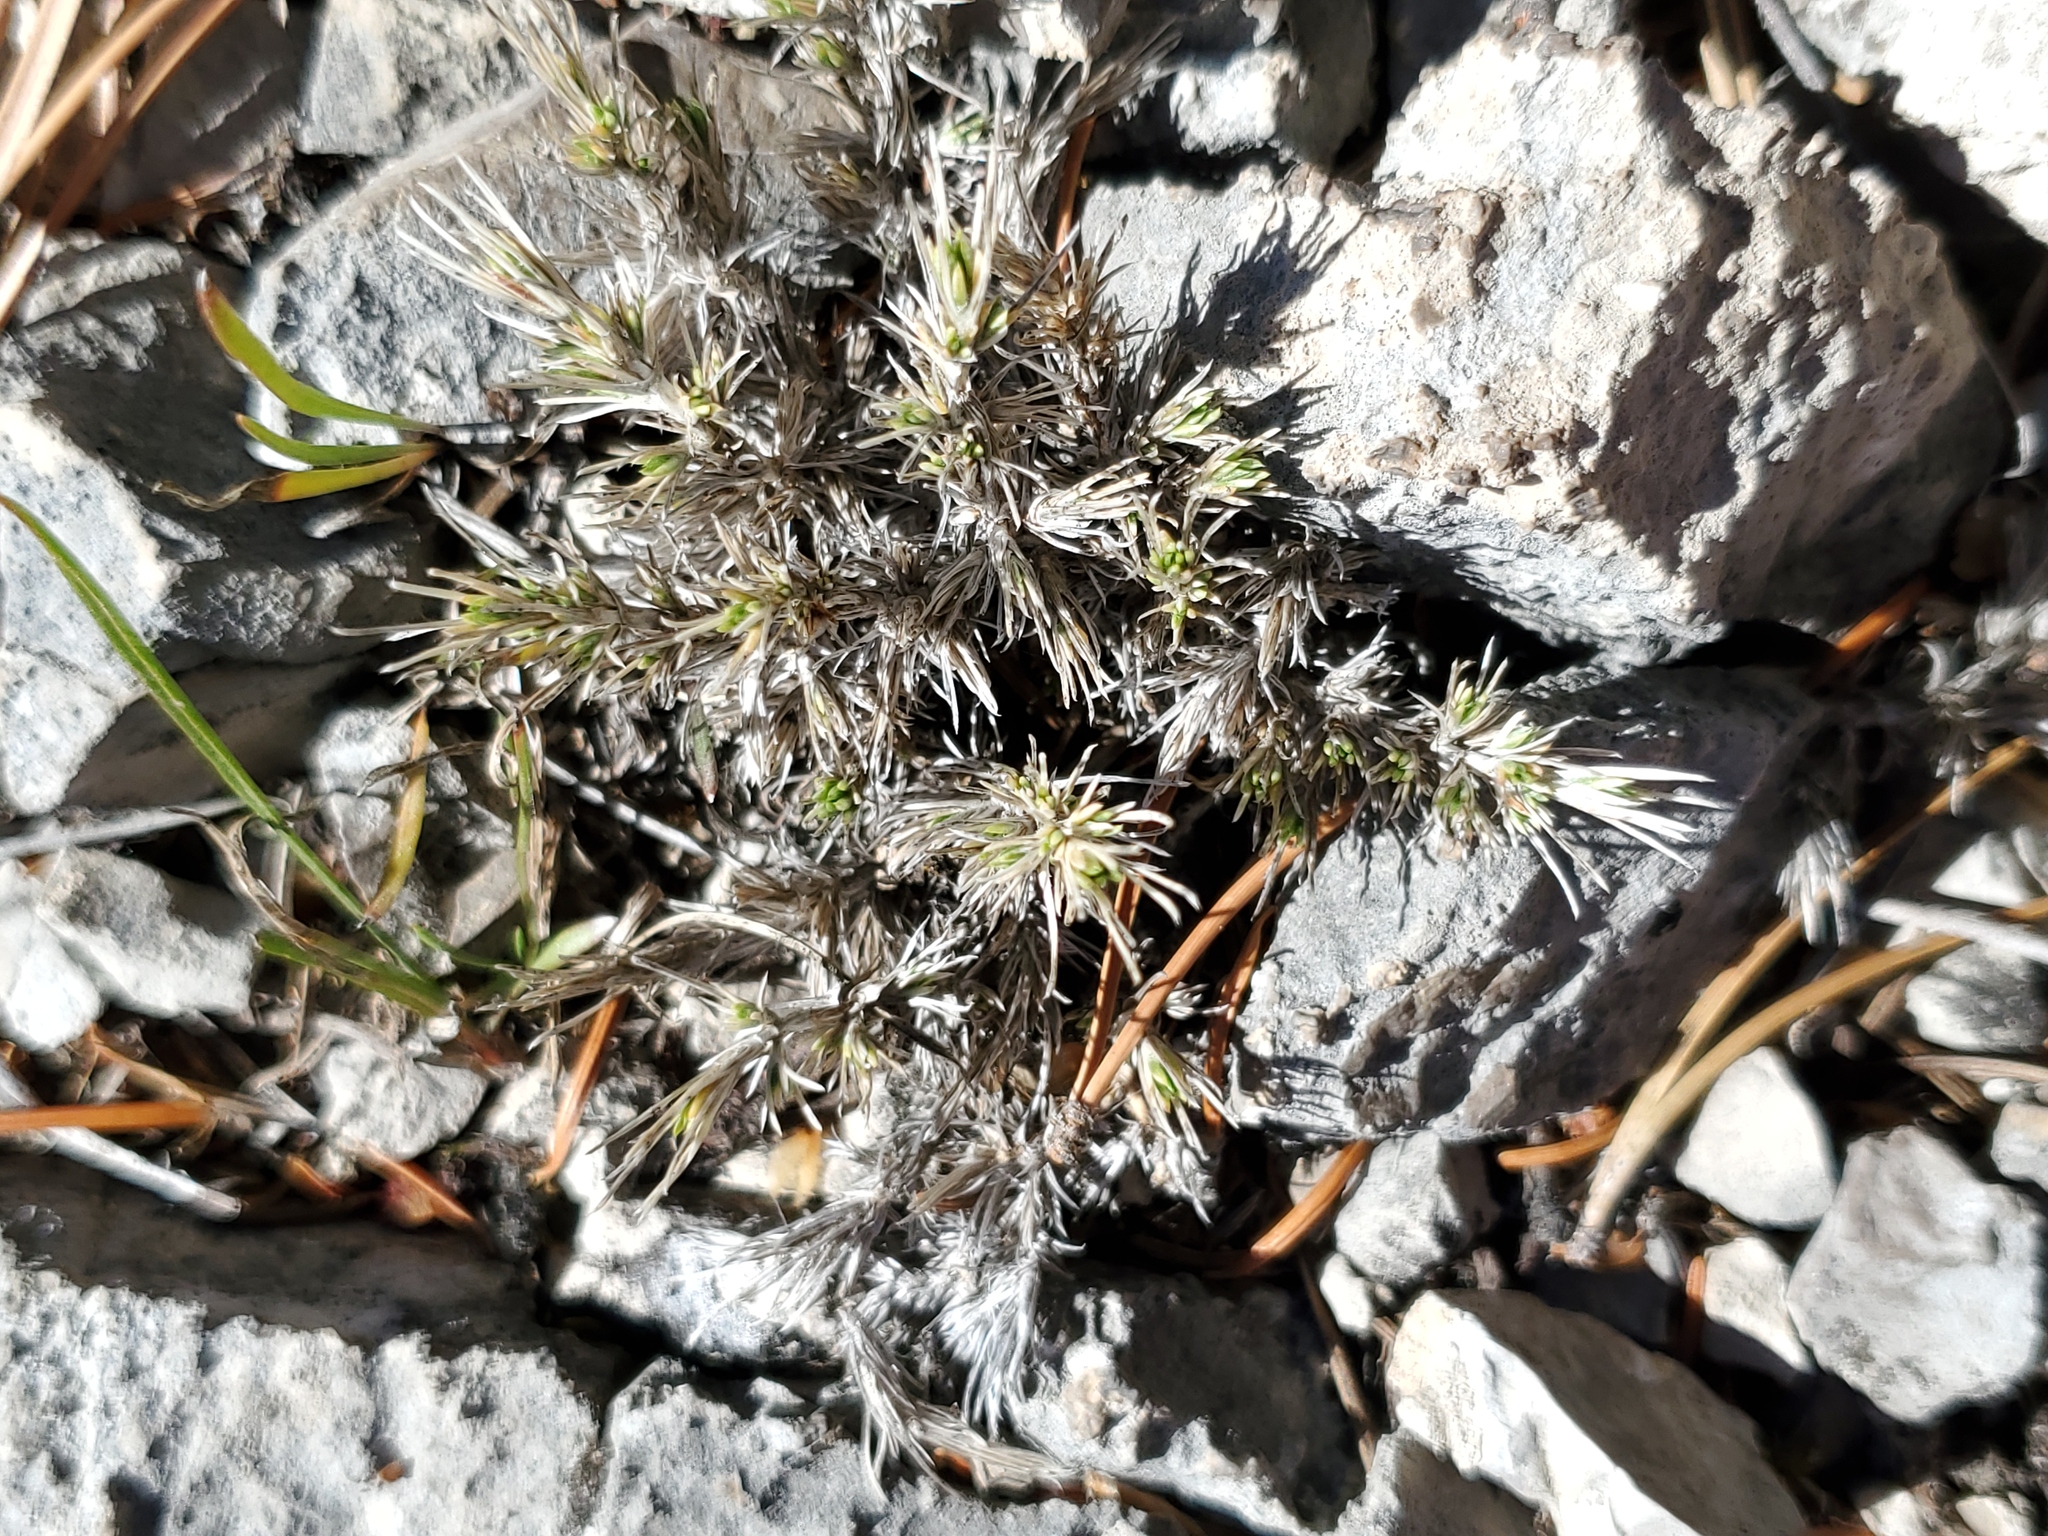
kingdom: Plantae
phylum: Tracheophyta
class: Magnoliopsida
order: Ericales
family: Polemoniaceae
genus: Phlox
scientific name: Phlox hoodii
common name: Moss phlox
